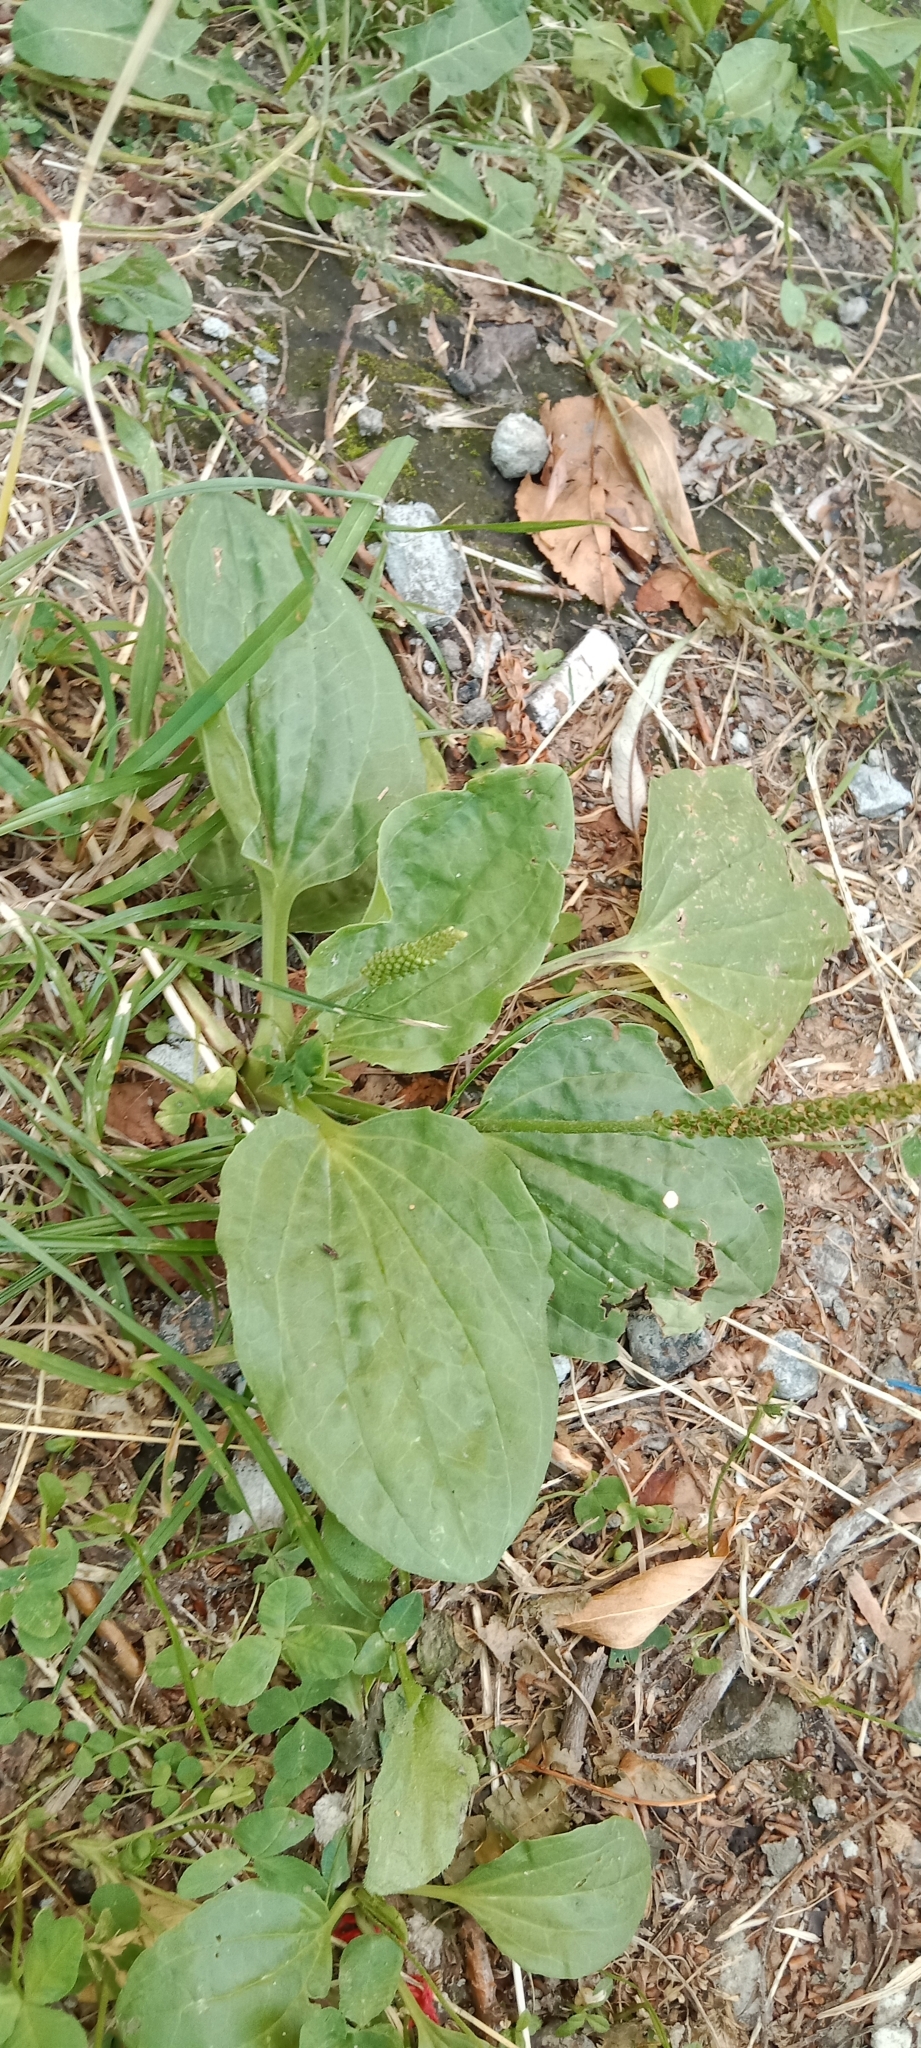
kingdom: Plantae
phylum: Tracheophyta
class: Magnoliopsida
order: Lamiales
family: Plantaginaceae
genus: Plantago
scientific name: Plantago major
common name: Common plantain
